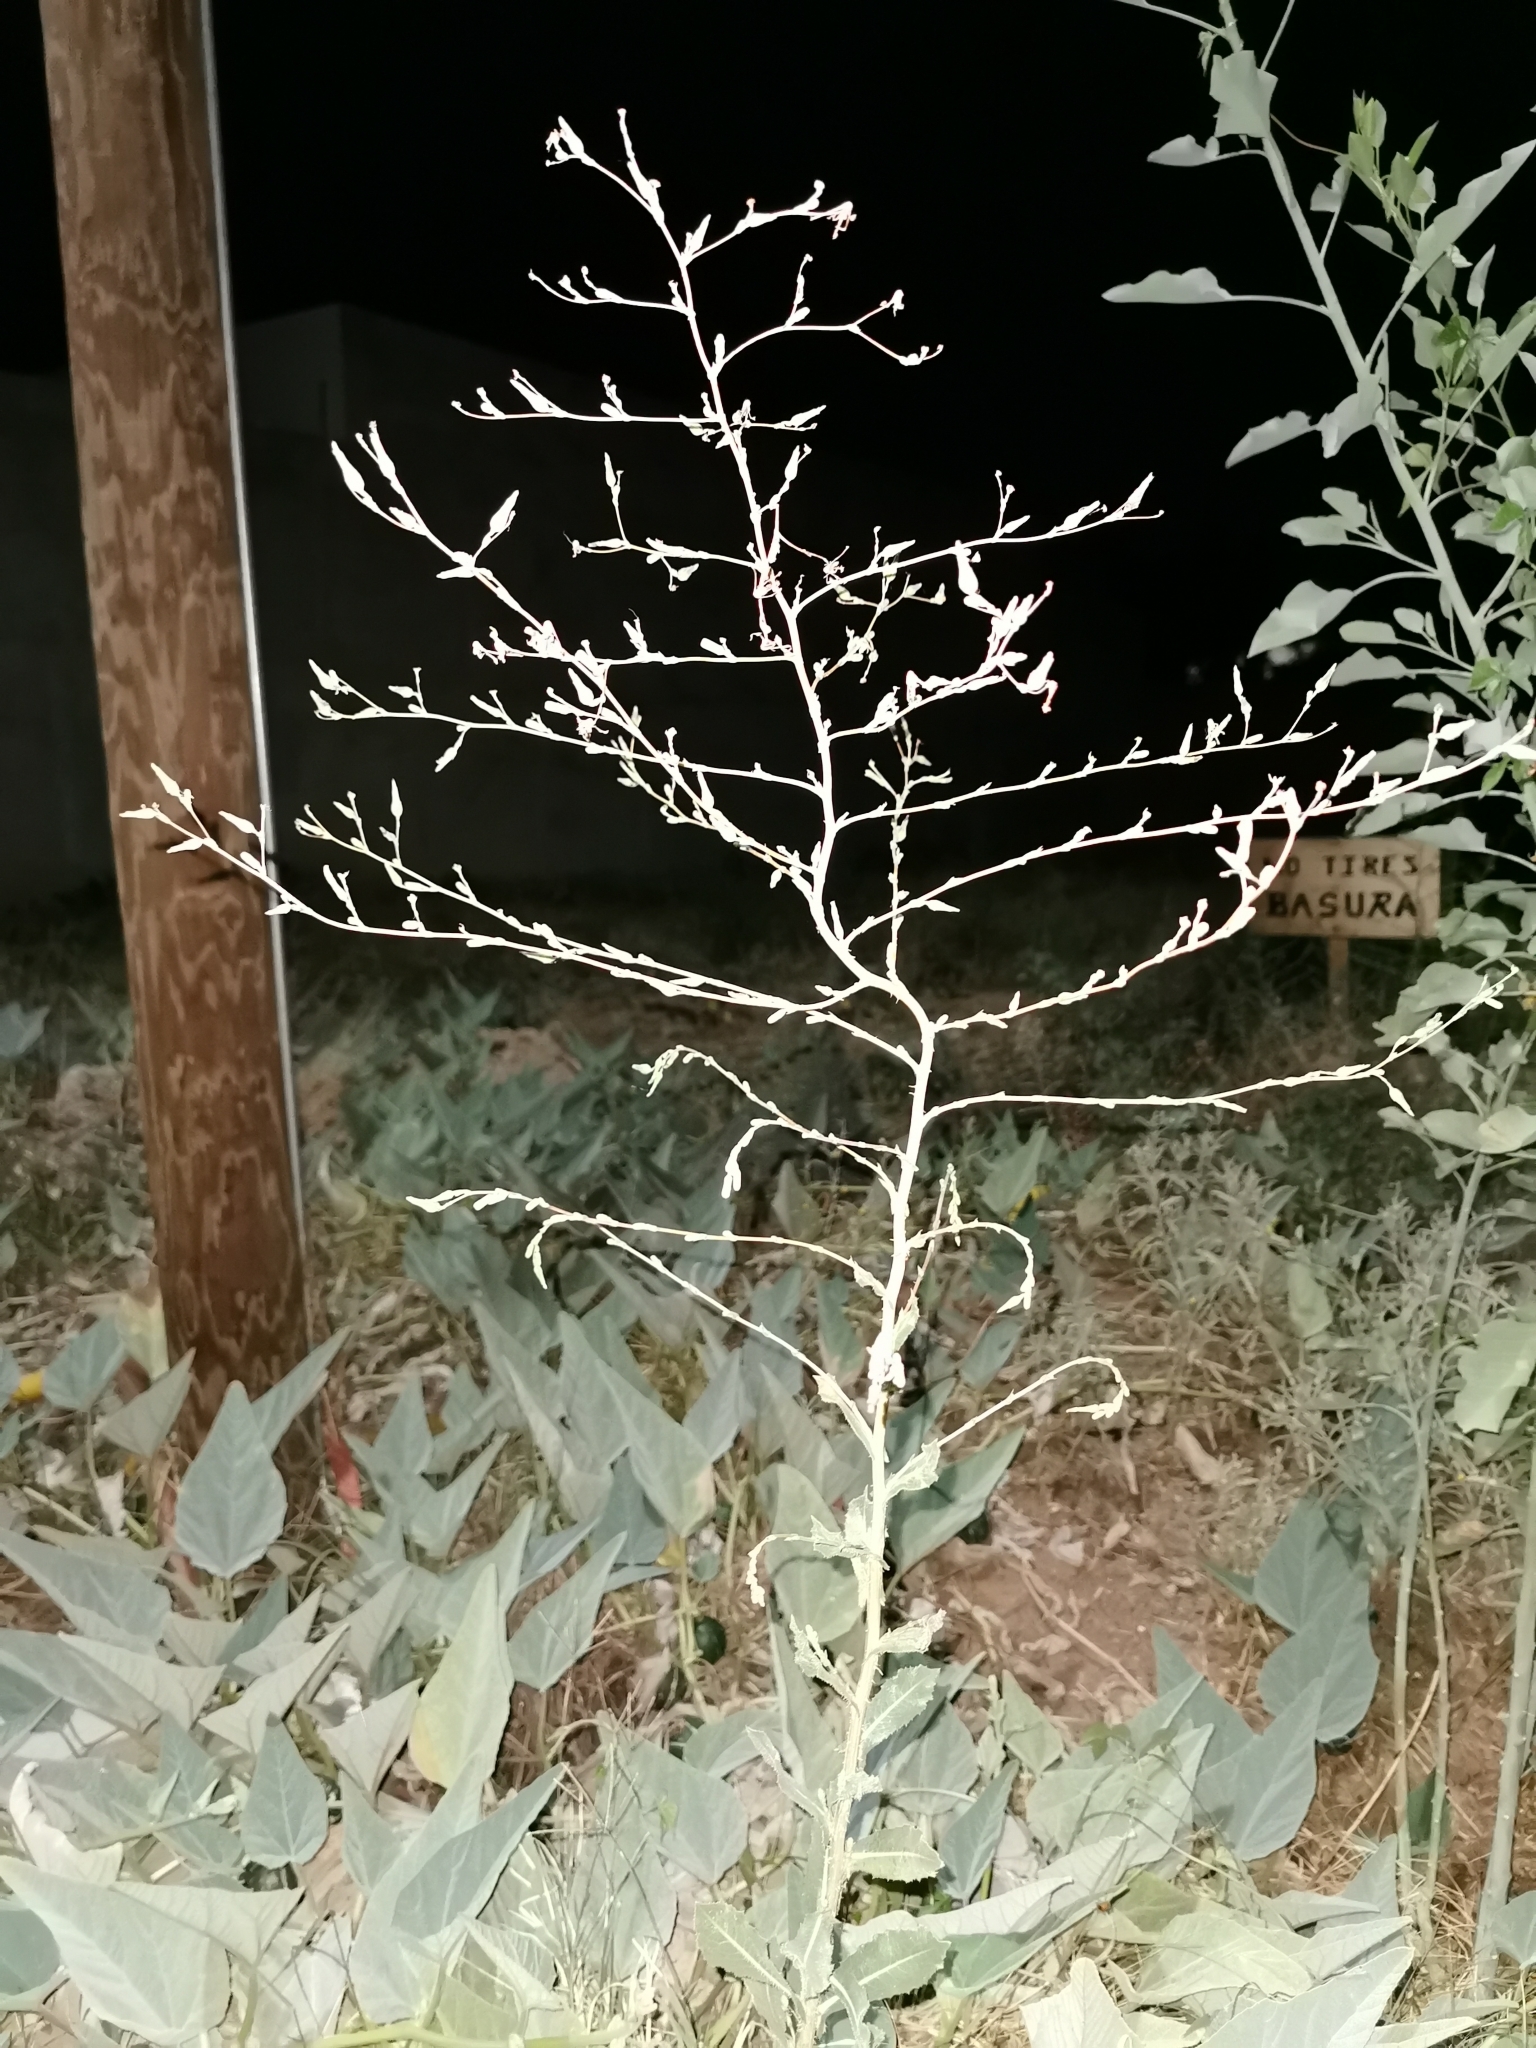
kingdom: Plantae
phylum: Tracheophyta
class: Magnoliopsida
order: Asterales
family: Asteraceae
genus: Lactuca
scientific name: Lactuca serriola
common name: Prickly lettuce
